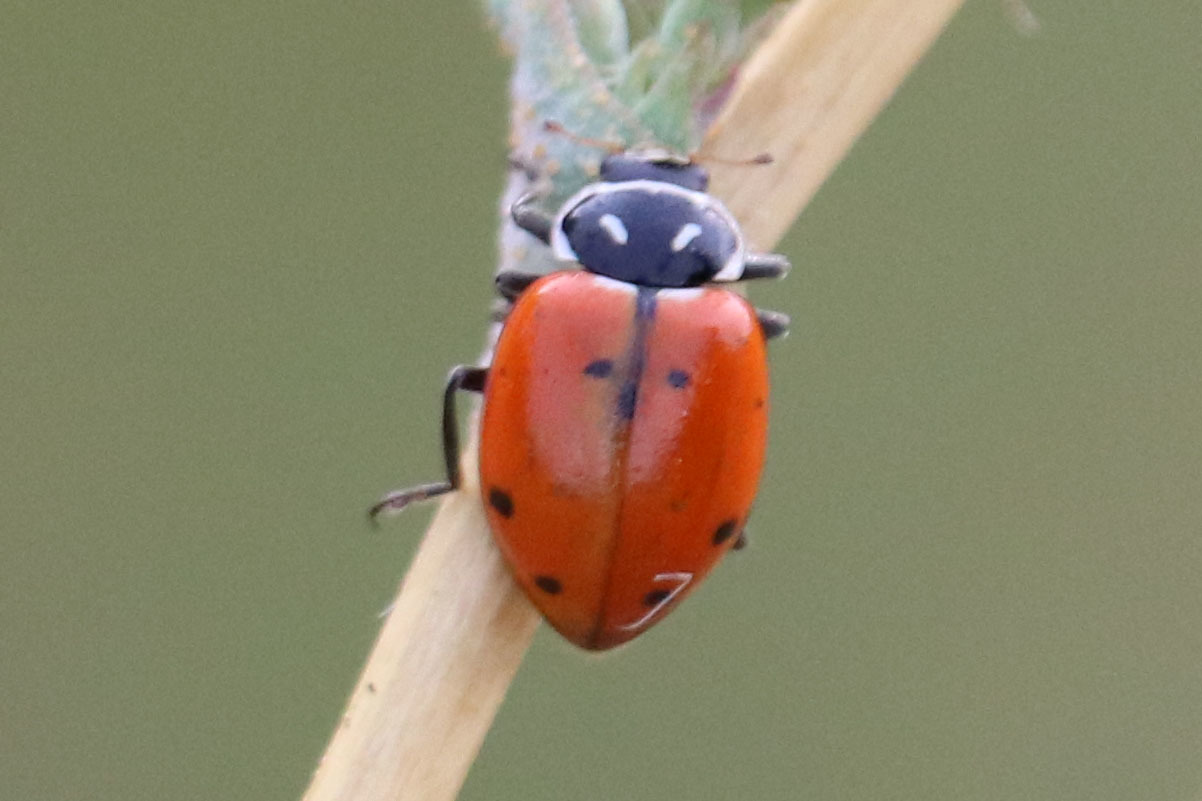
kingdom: Animalia
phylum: Arthropoda
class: Insecta
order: Coleoptera
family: Coccinellidae
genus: Hippodamia
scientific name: Hippodamia convergens
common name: Convergent lady beetle
